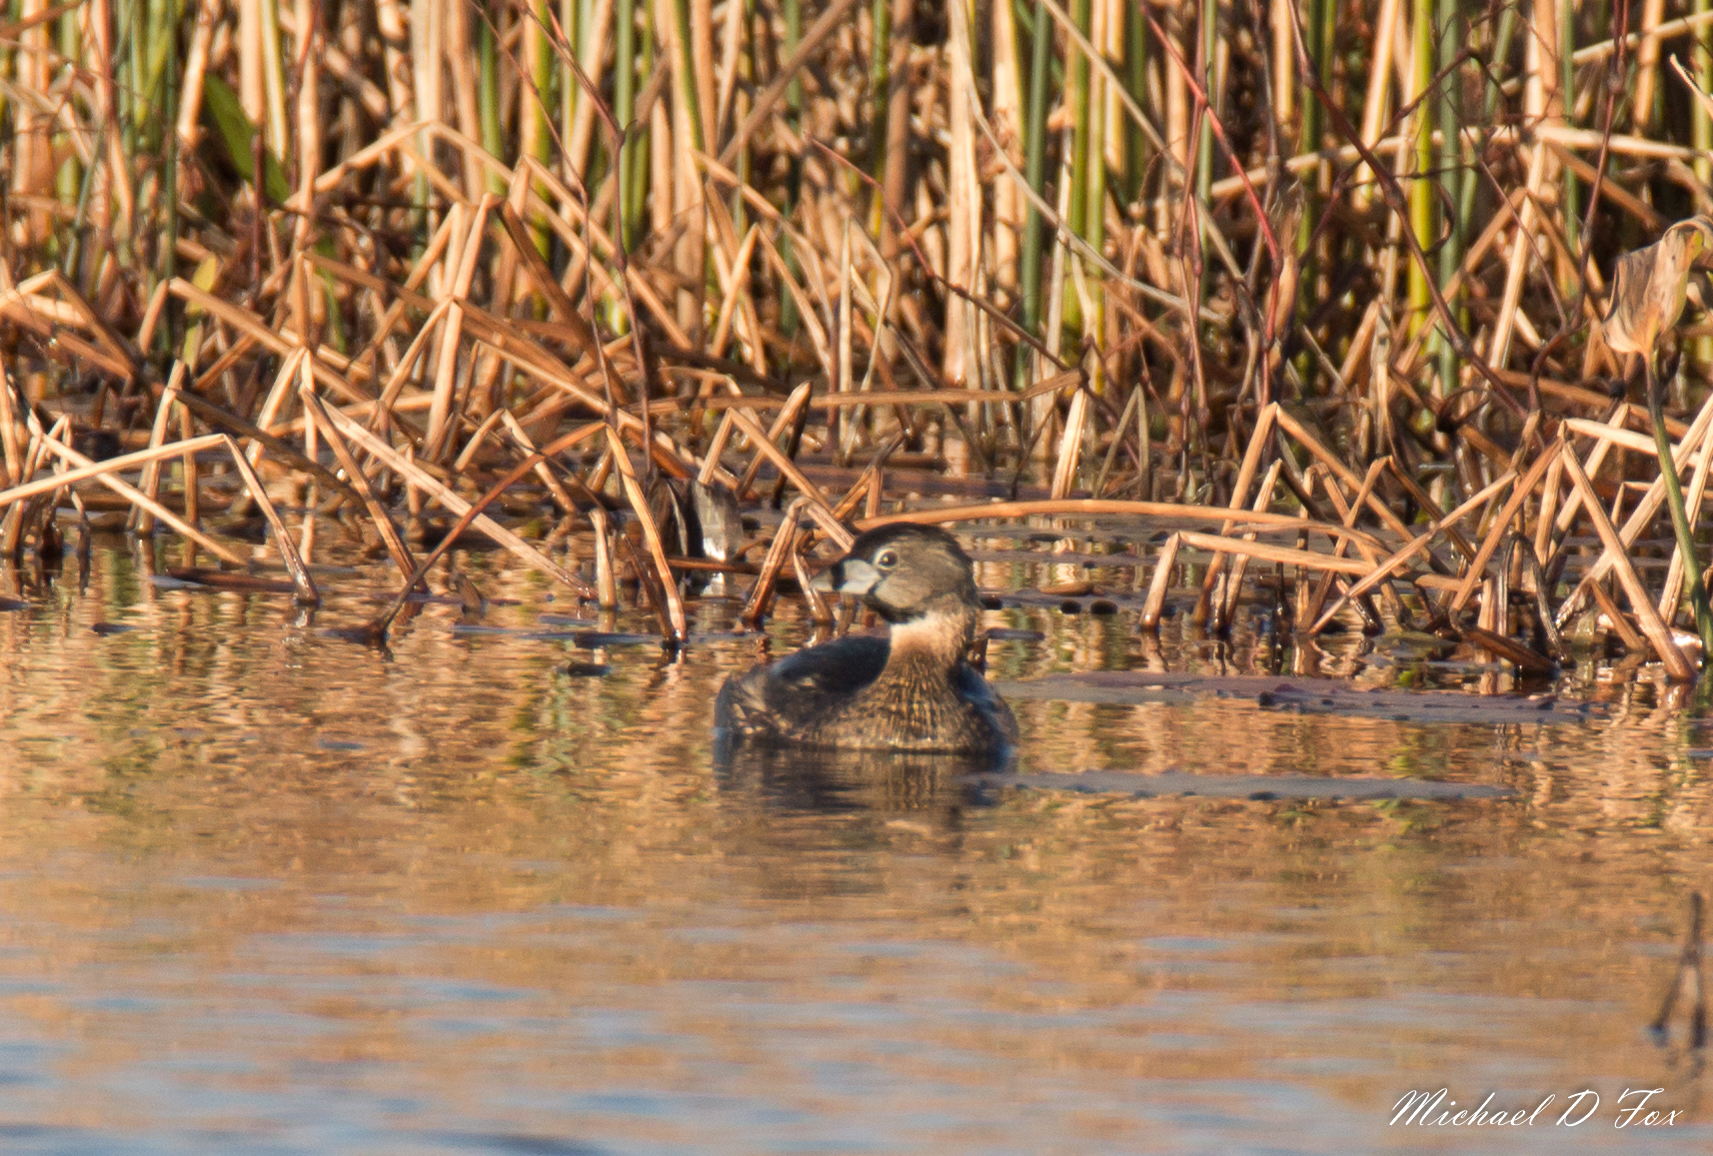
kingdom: Animalia
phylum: Chordata
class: Aves
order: Podicipediformes
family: Podicipedidae
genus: Podilymbus
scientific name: Podilymbus podiceps
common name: Pied-billed grebe
